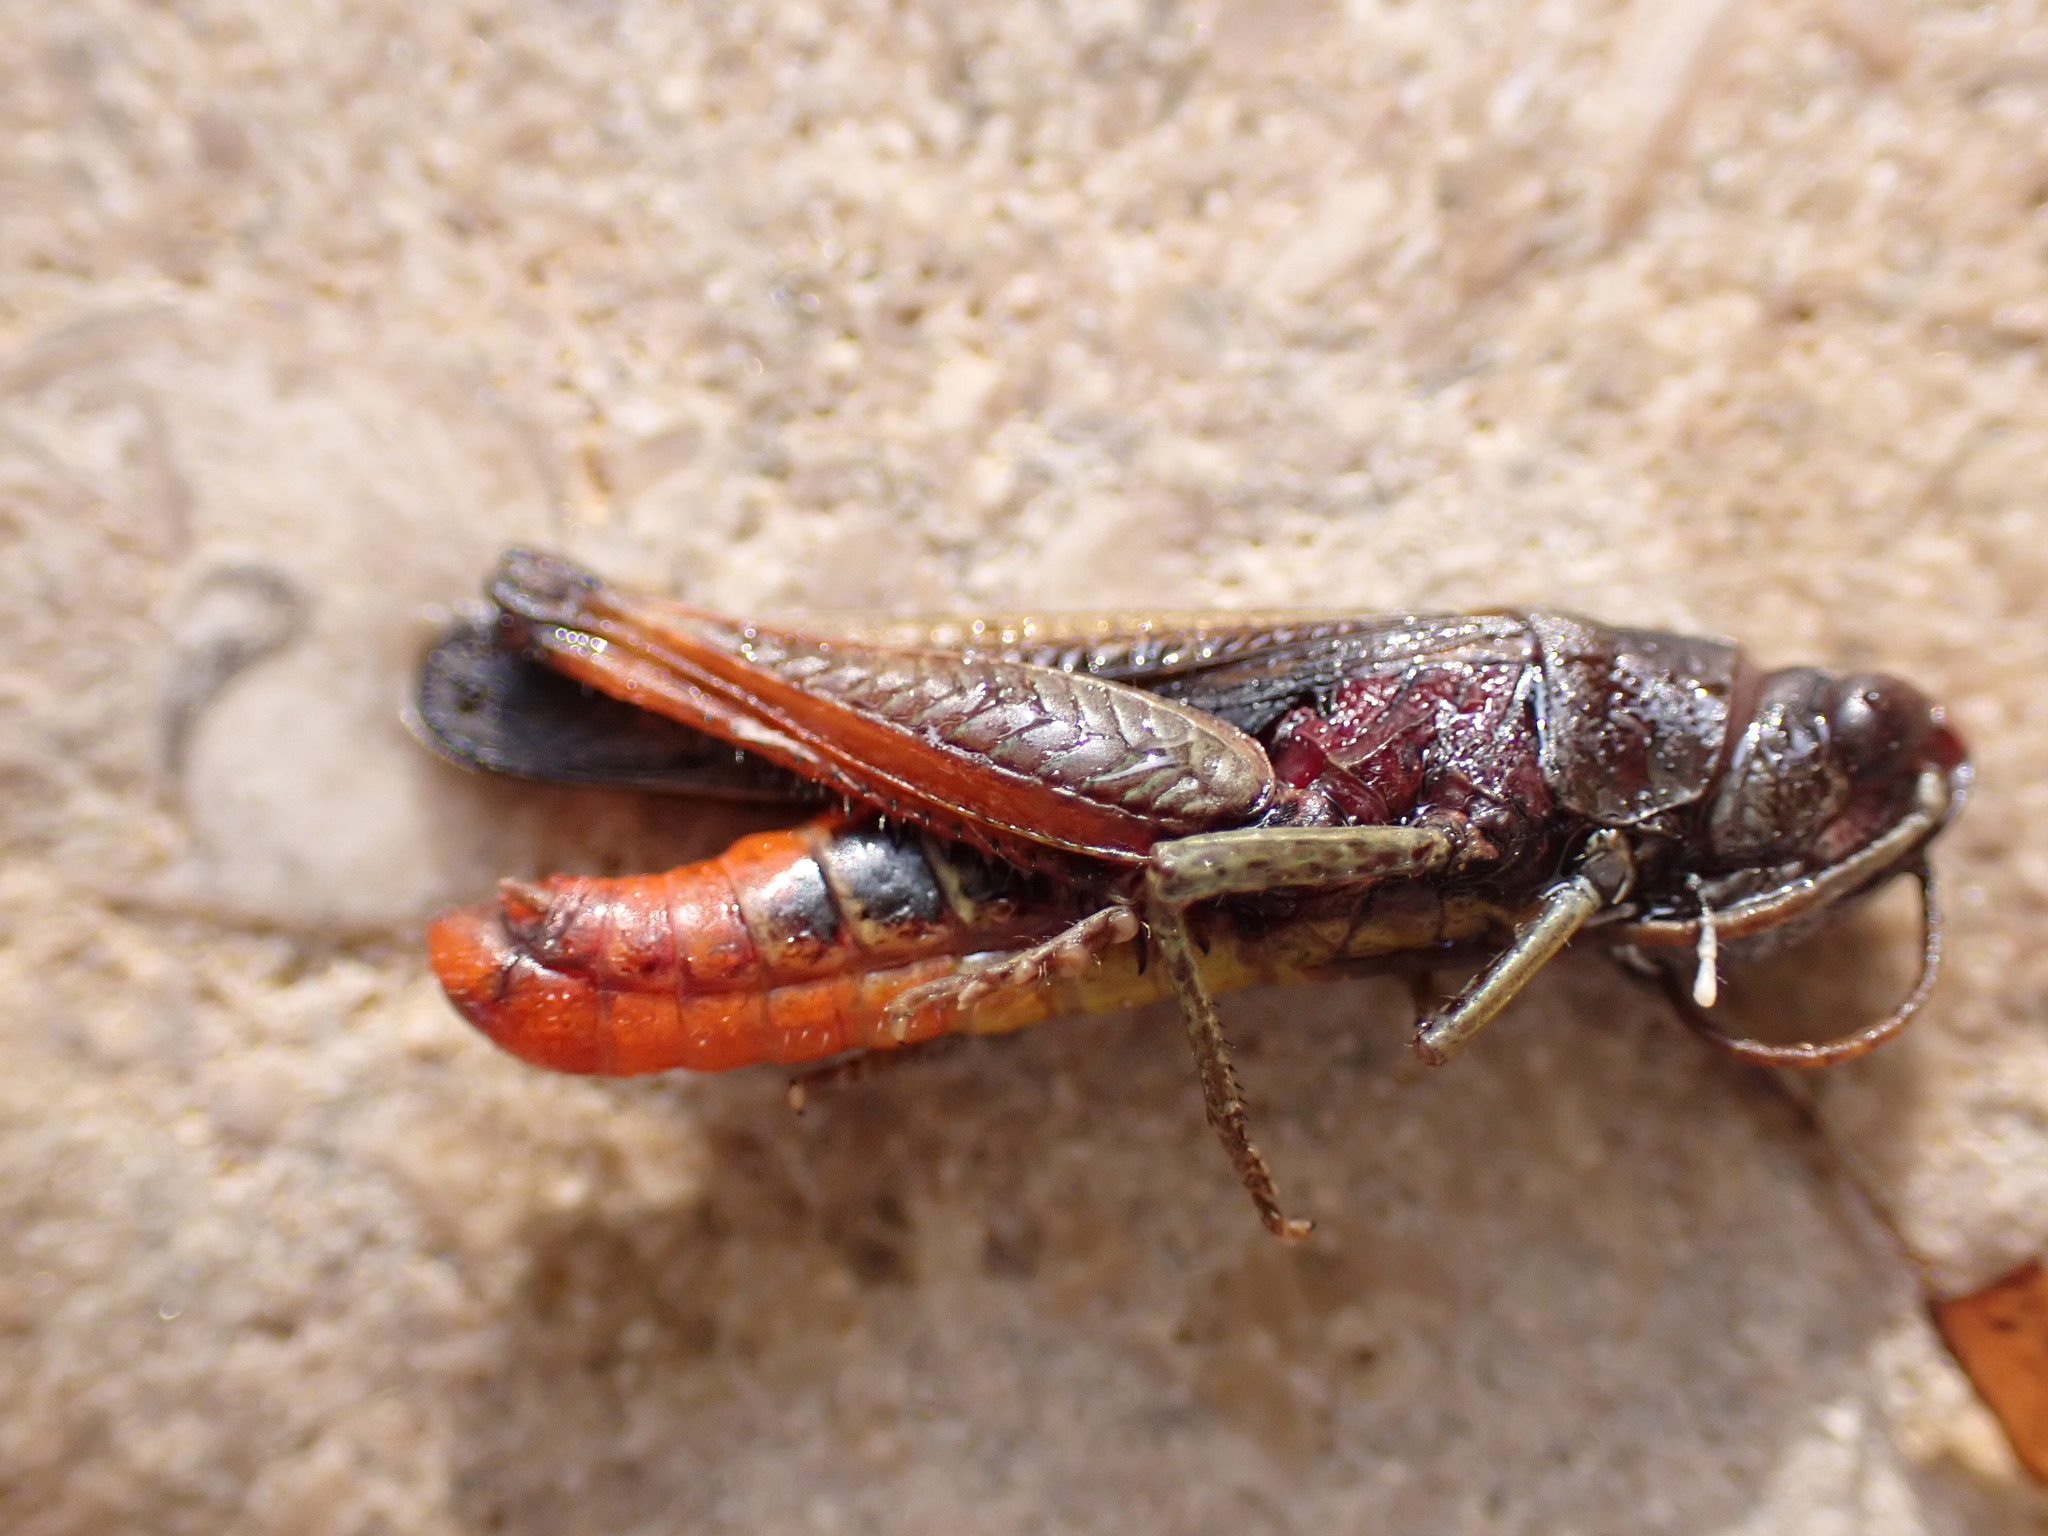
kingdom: Animalia
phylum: Arthropoda
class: Insecta
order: Orthoptera
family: Acrididae
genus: Omocestus
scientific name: Omocestus rufipes
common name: Woodland grasshopper
